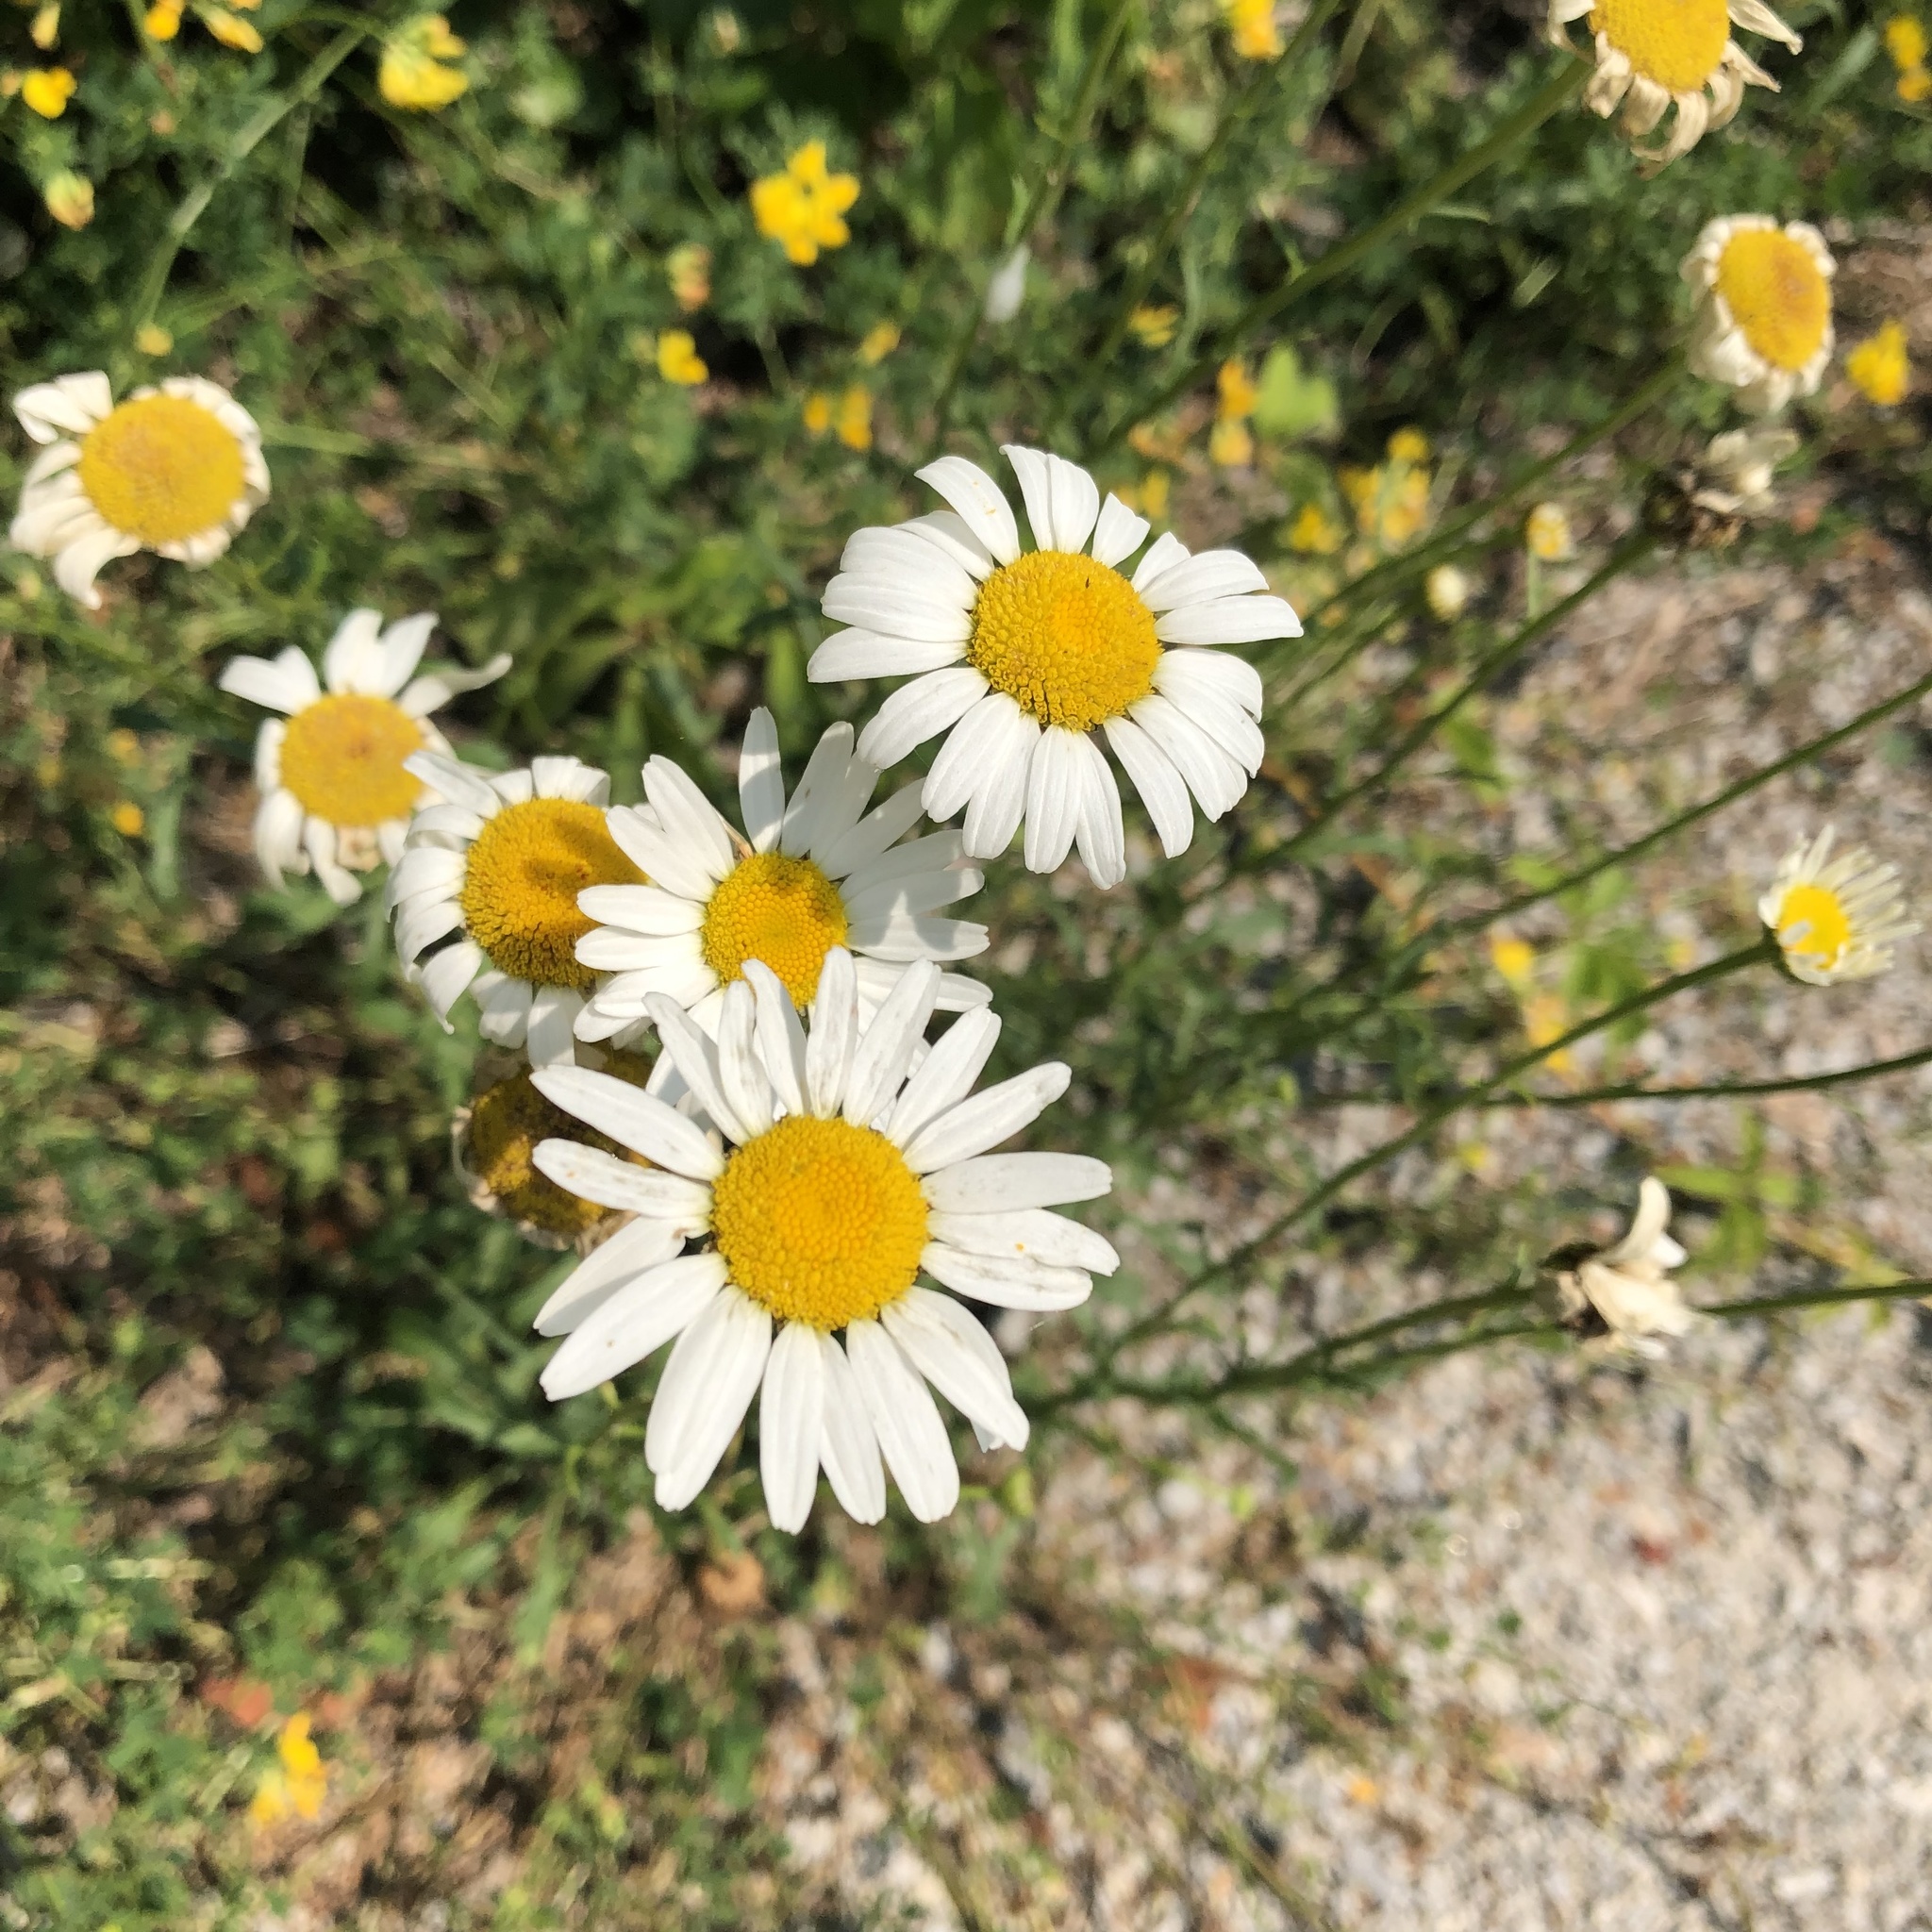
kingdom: Plantae
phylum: Tracheophyta
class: Magnoliopsida
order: Asterales
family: Asteraceae
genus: Leucanthemum
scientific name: Leucanthemum vulgare
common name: Oxeye daisy
